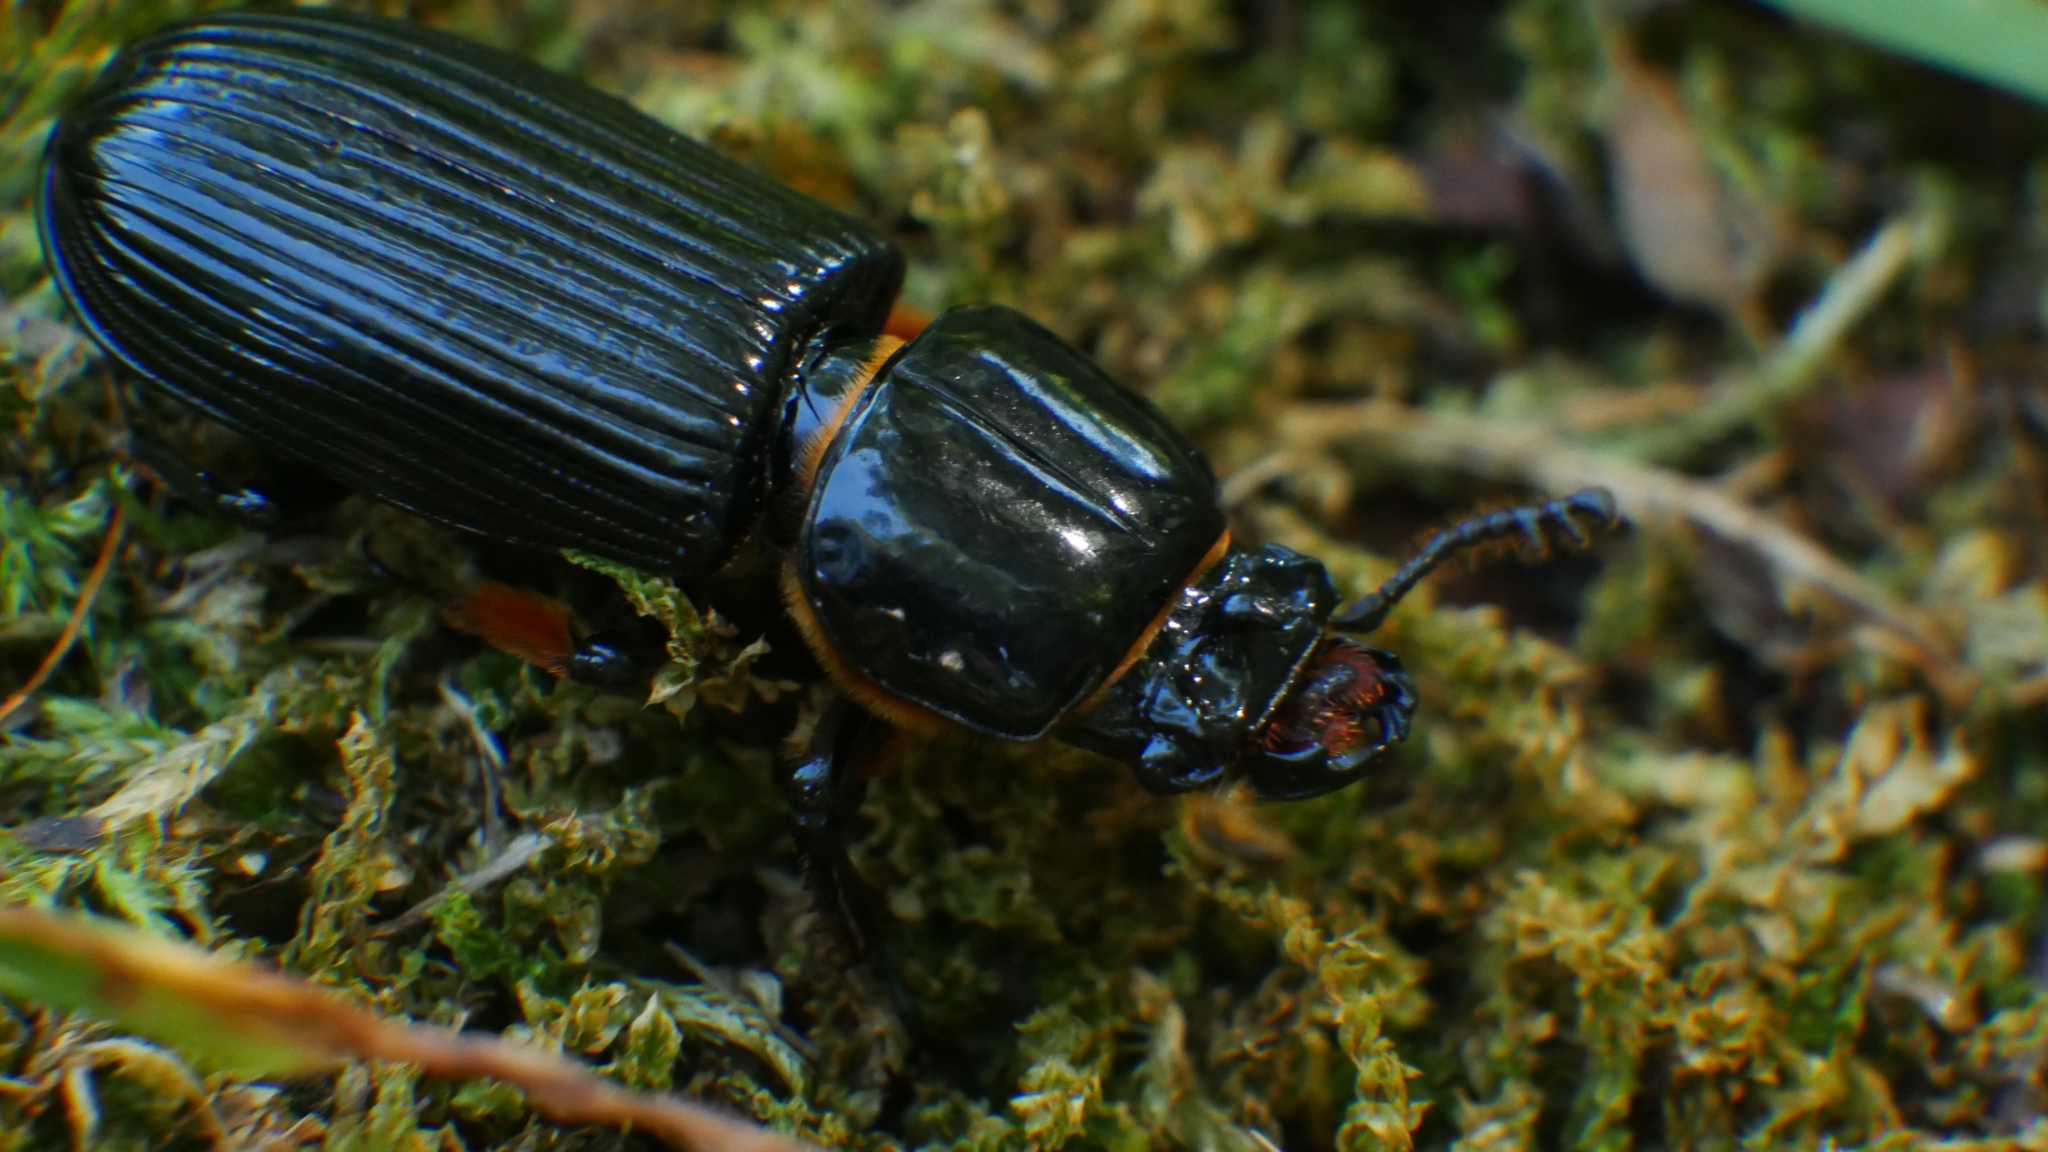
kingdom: Animalia
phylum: Arthropoda
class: Insecta
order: Coleoptera
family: Passalidae
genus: Odontotaenius
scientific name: Odontotaenius disjunctus
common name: Patent leather beetle
